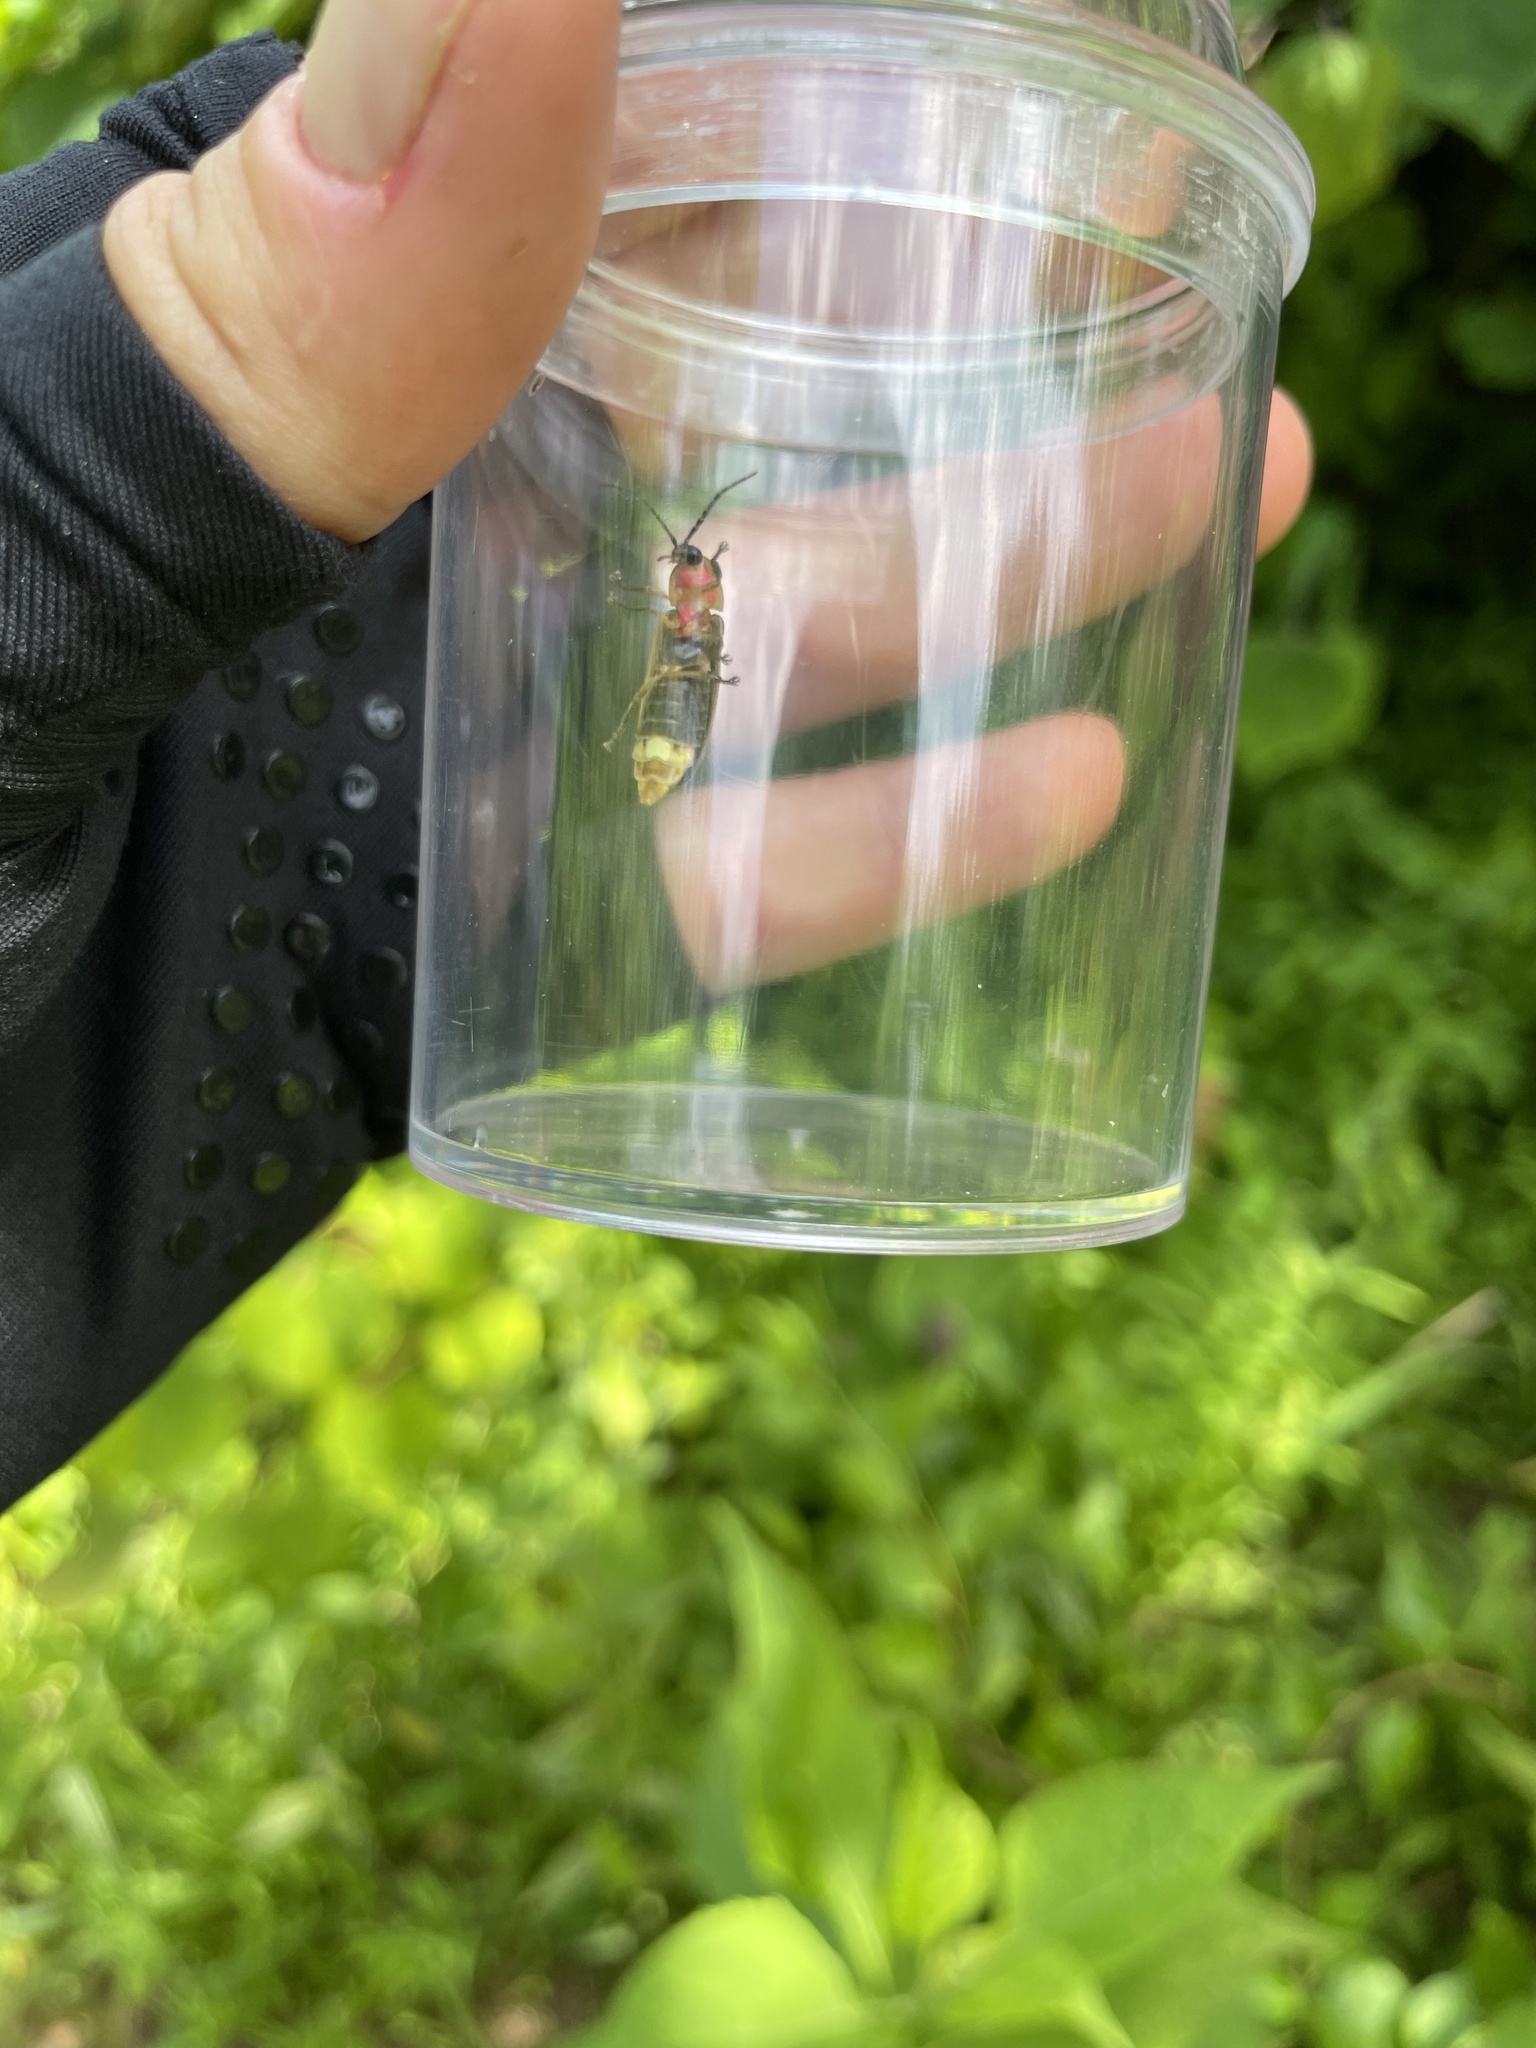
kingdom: Animalia
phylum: Arthropoda
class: Insecta
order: Coleoptera
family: Lampyridae
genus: Photinus
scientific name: Photinus pyralis
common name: Big dipper firefly
